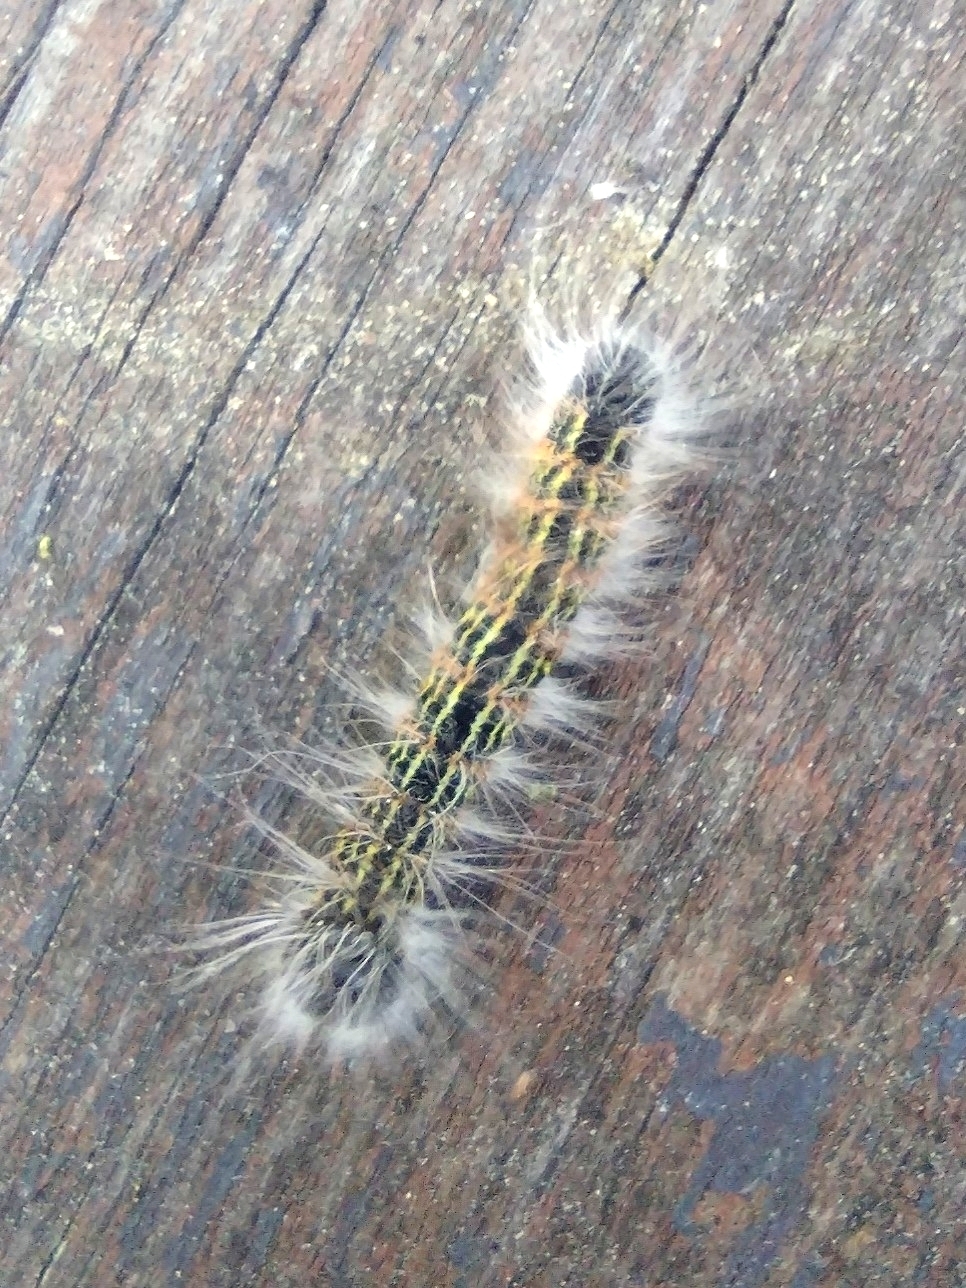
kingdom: Animalia
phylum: Arthropoda
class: Insecta
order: Lepidoptera
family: Notodontidae
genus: Phalera
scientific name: Phalera bucephala
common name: Buff-tip
